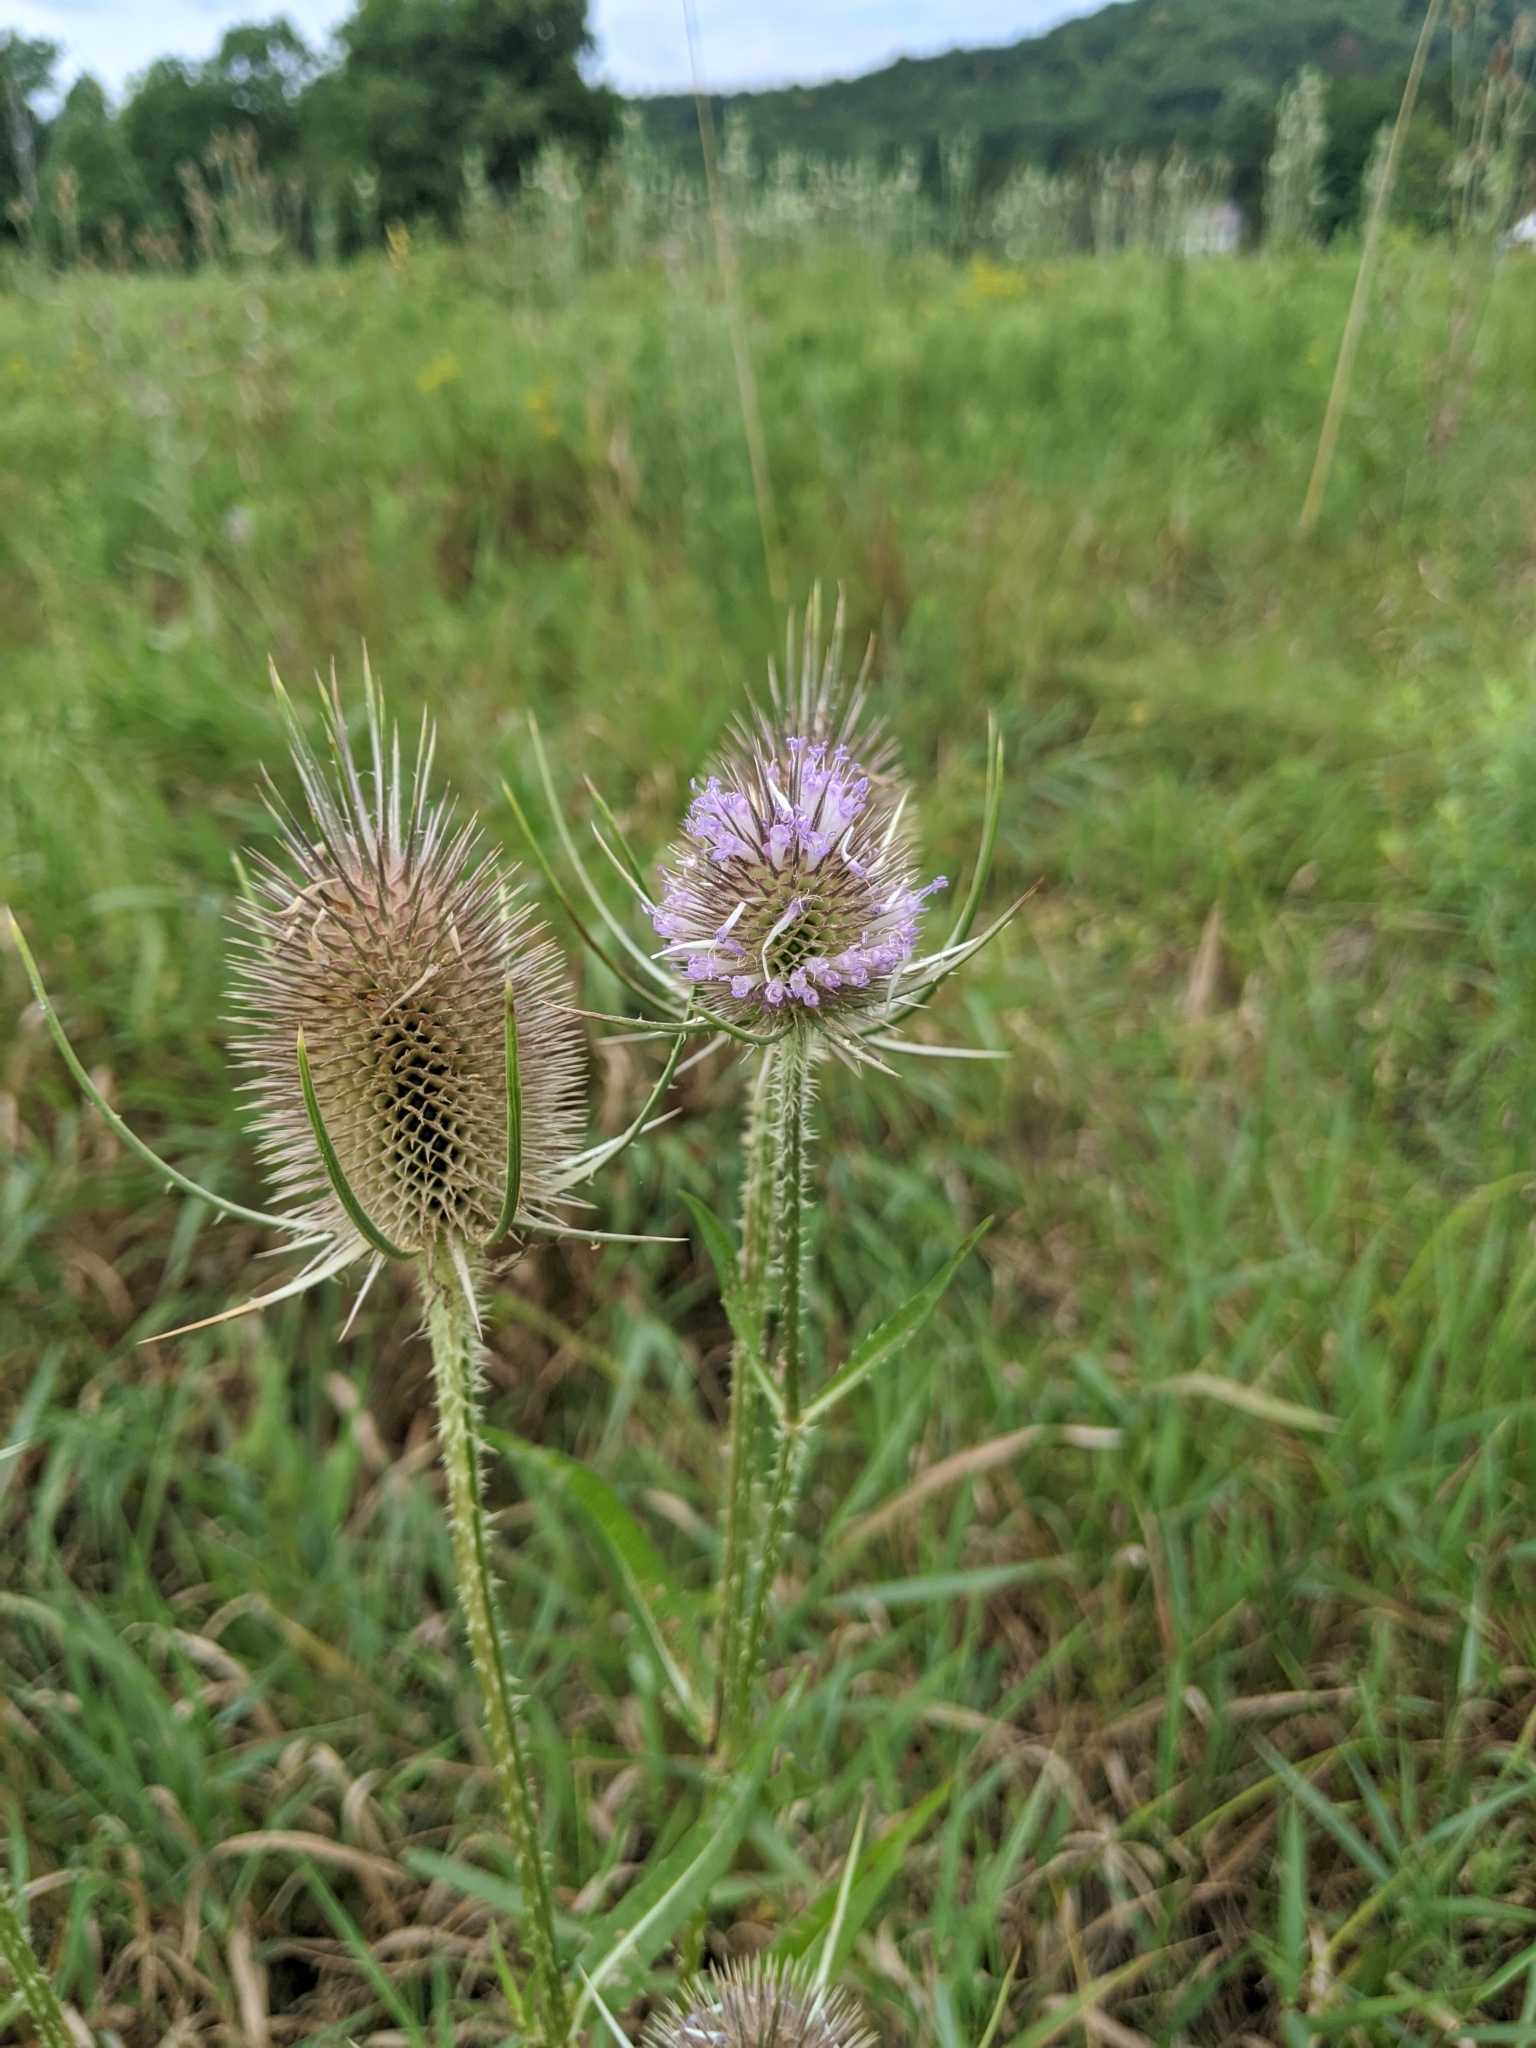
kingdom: Plantae
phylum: Tracheophyta
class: Magnoliopsida
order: Dipsacales
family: Caprifoliaceae
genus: Dipsacus
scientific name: Dipsacus fullonum
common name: Teasel
